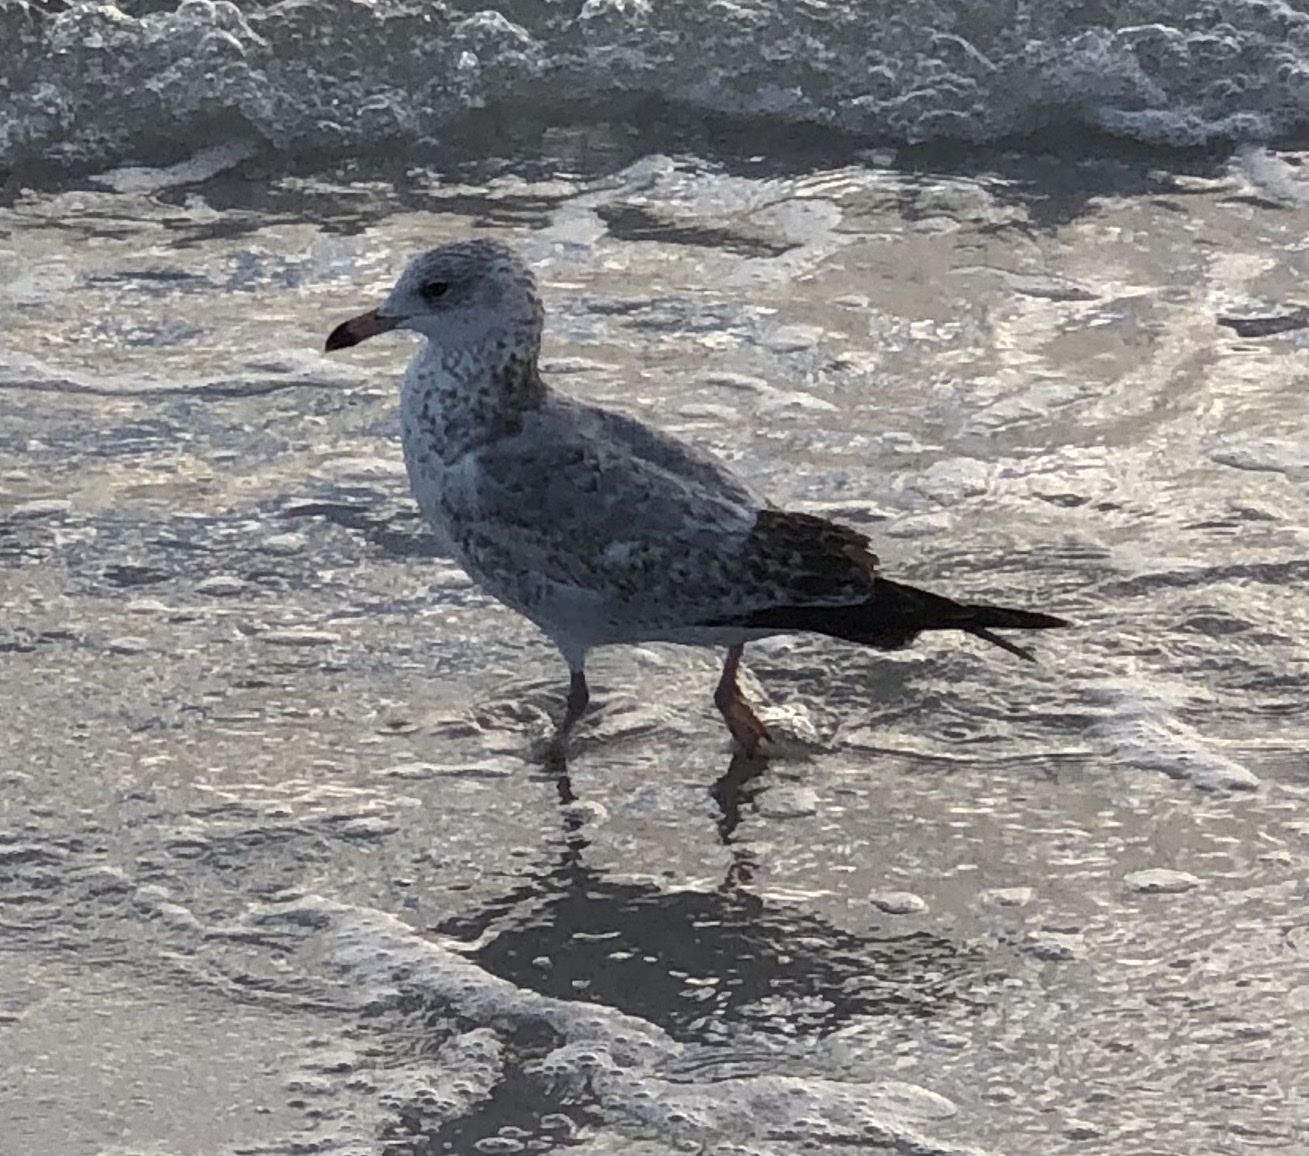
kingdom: Animalia
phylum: Chordata
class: Aves
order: Charadriiformes
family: Laridae
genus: Larus
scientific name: Larus delawarensis
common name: Ring-billed gull
